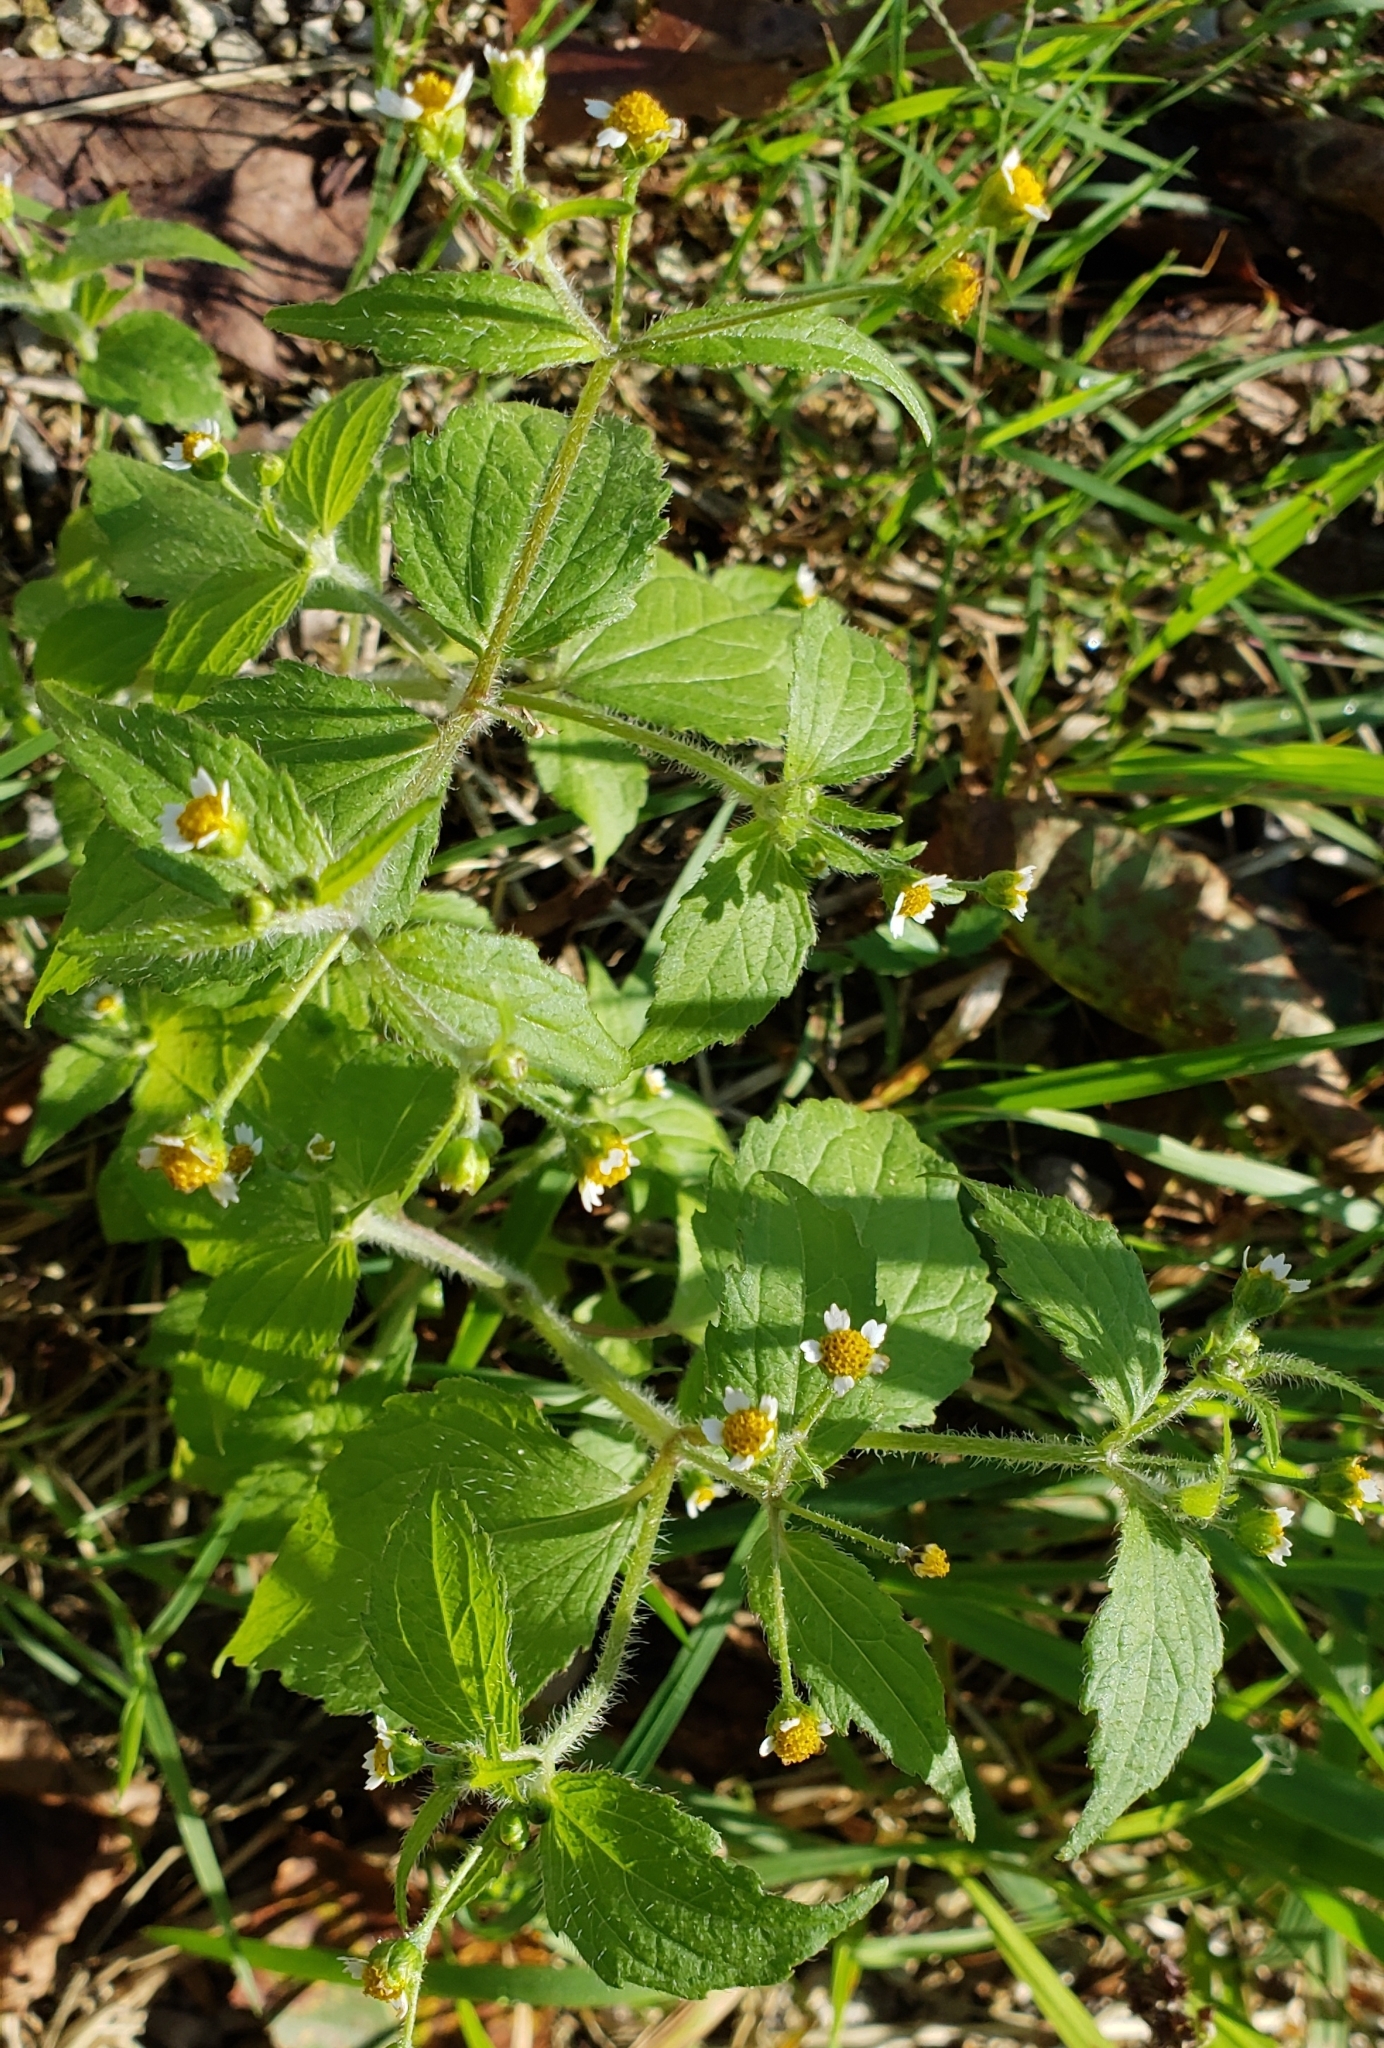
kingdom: Plantae
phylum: Tracheophyta
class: Magnoliopsida
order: Asterales
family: Asteraceae
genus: Galinsoga
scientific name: Galinsoga quadriradiata
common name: Shaggy soldier
